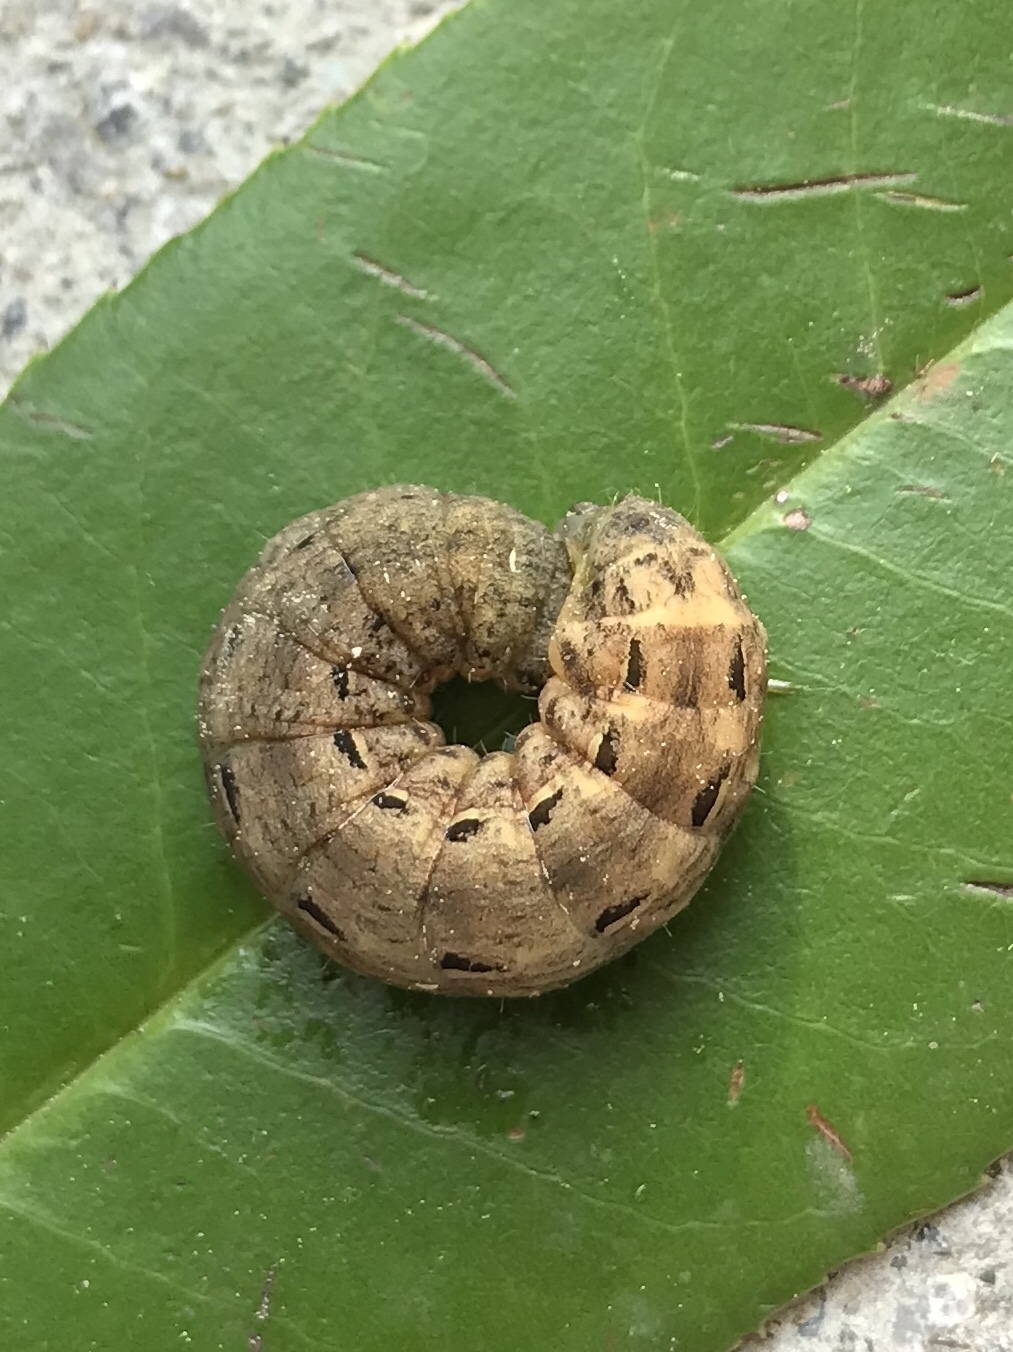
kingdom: Animalia
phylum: Arthropoda
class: Insecta
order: Lepidoptera
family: Noctuidae
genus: Noctua
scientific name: Noctua pronuba
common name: Large yellow underwing
